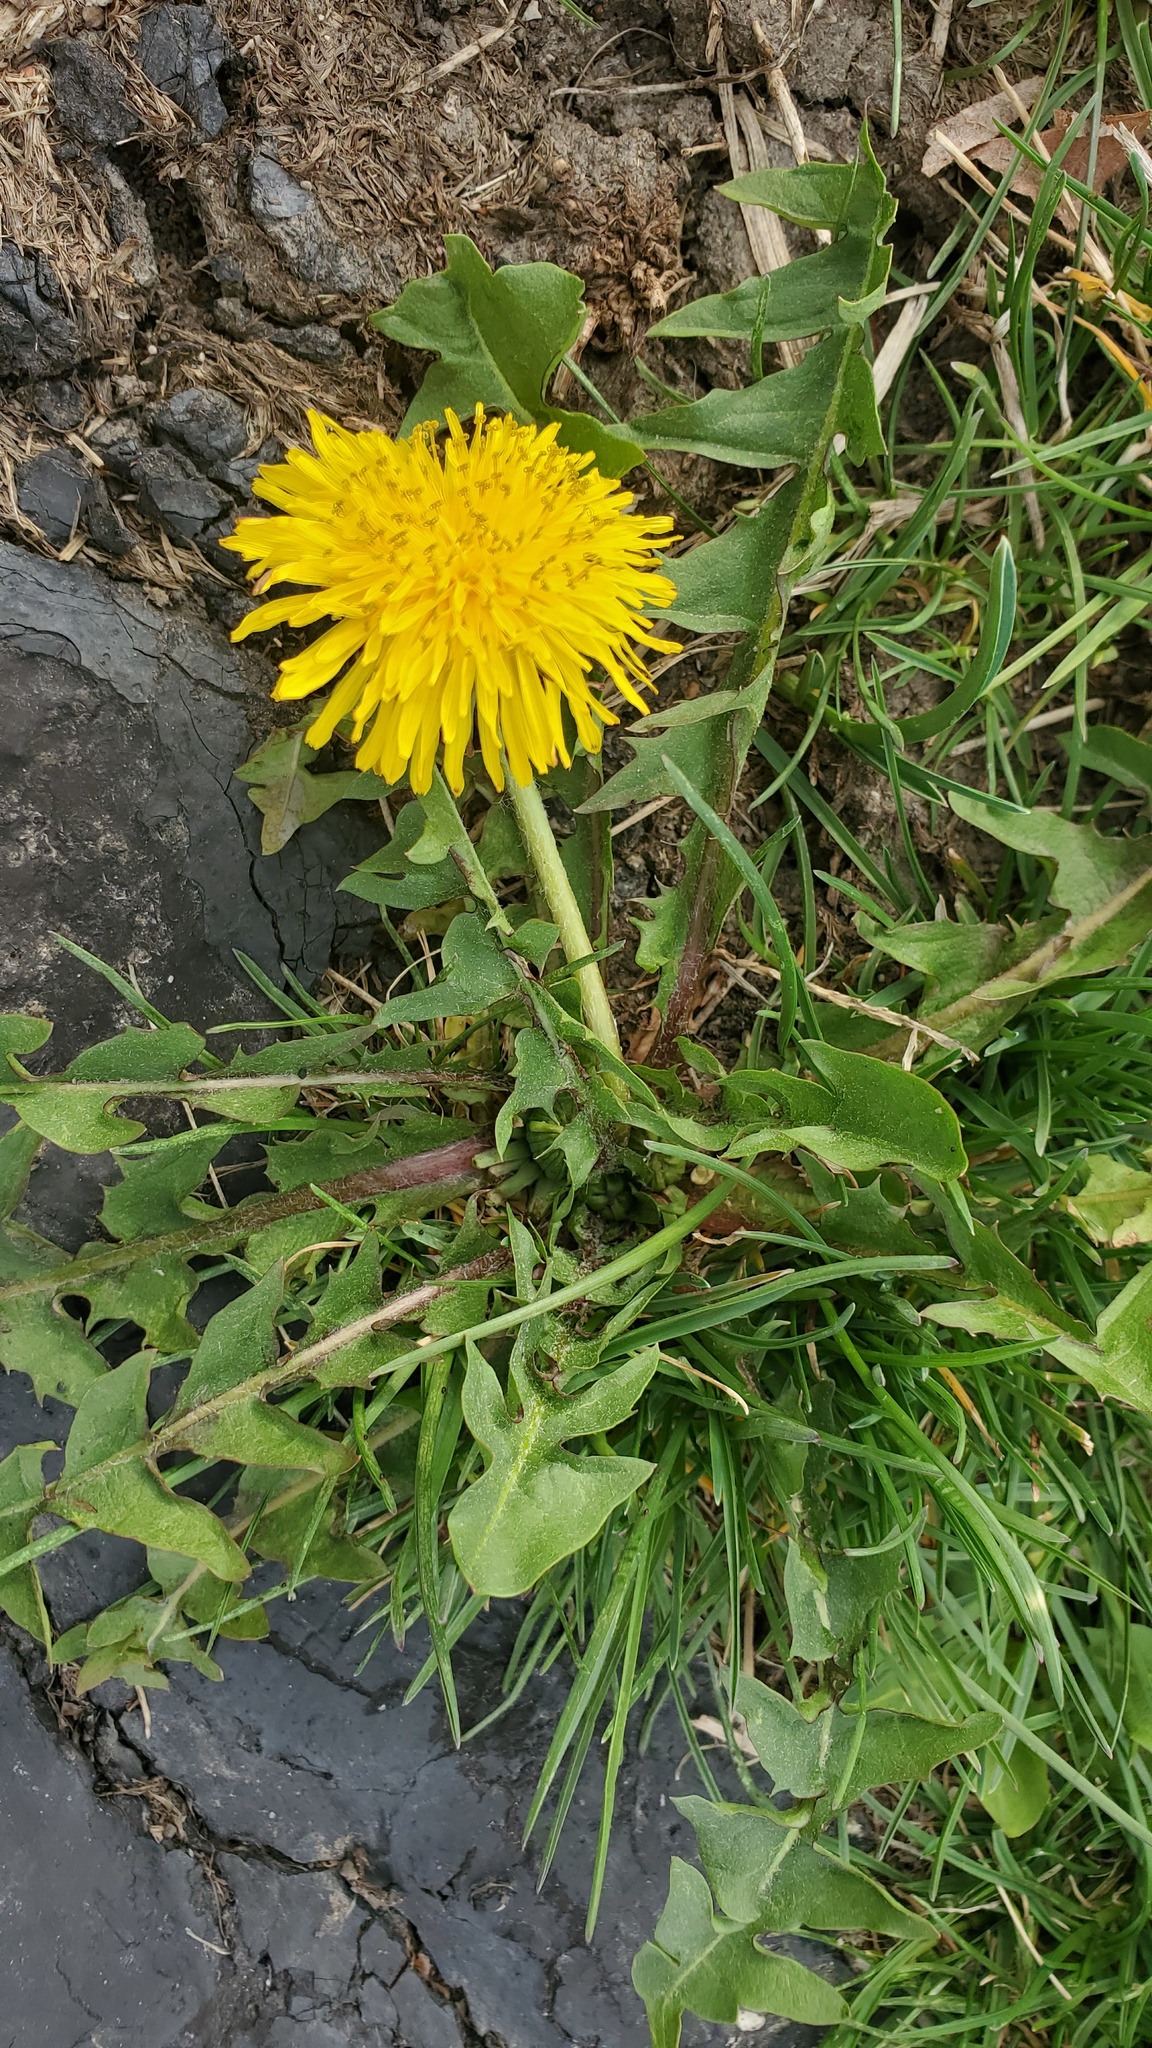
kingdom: Plantae
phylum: Tracheophyta
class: Magnoliopsida
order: Asterales
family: Asteraceae
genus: Taraxacum
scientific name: Taraxacum officinale
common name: Common dandelion
